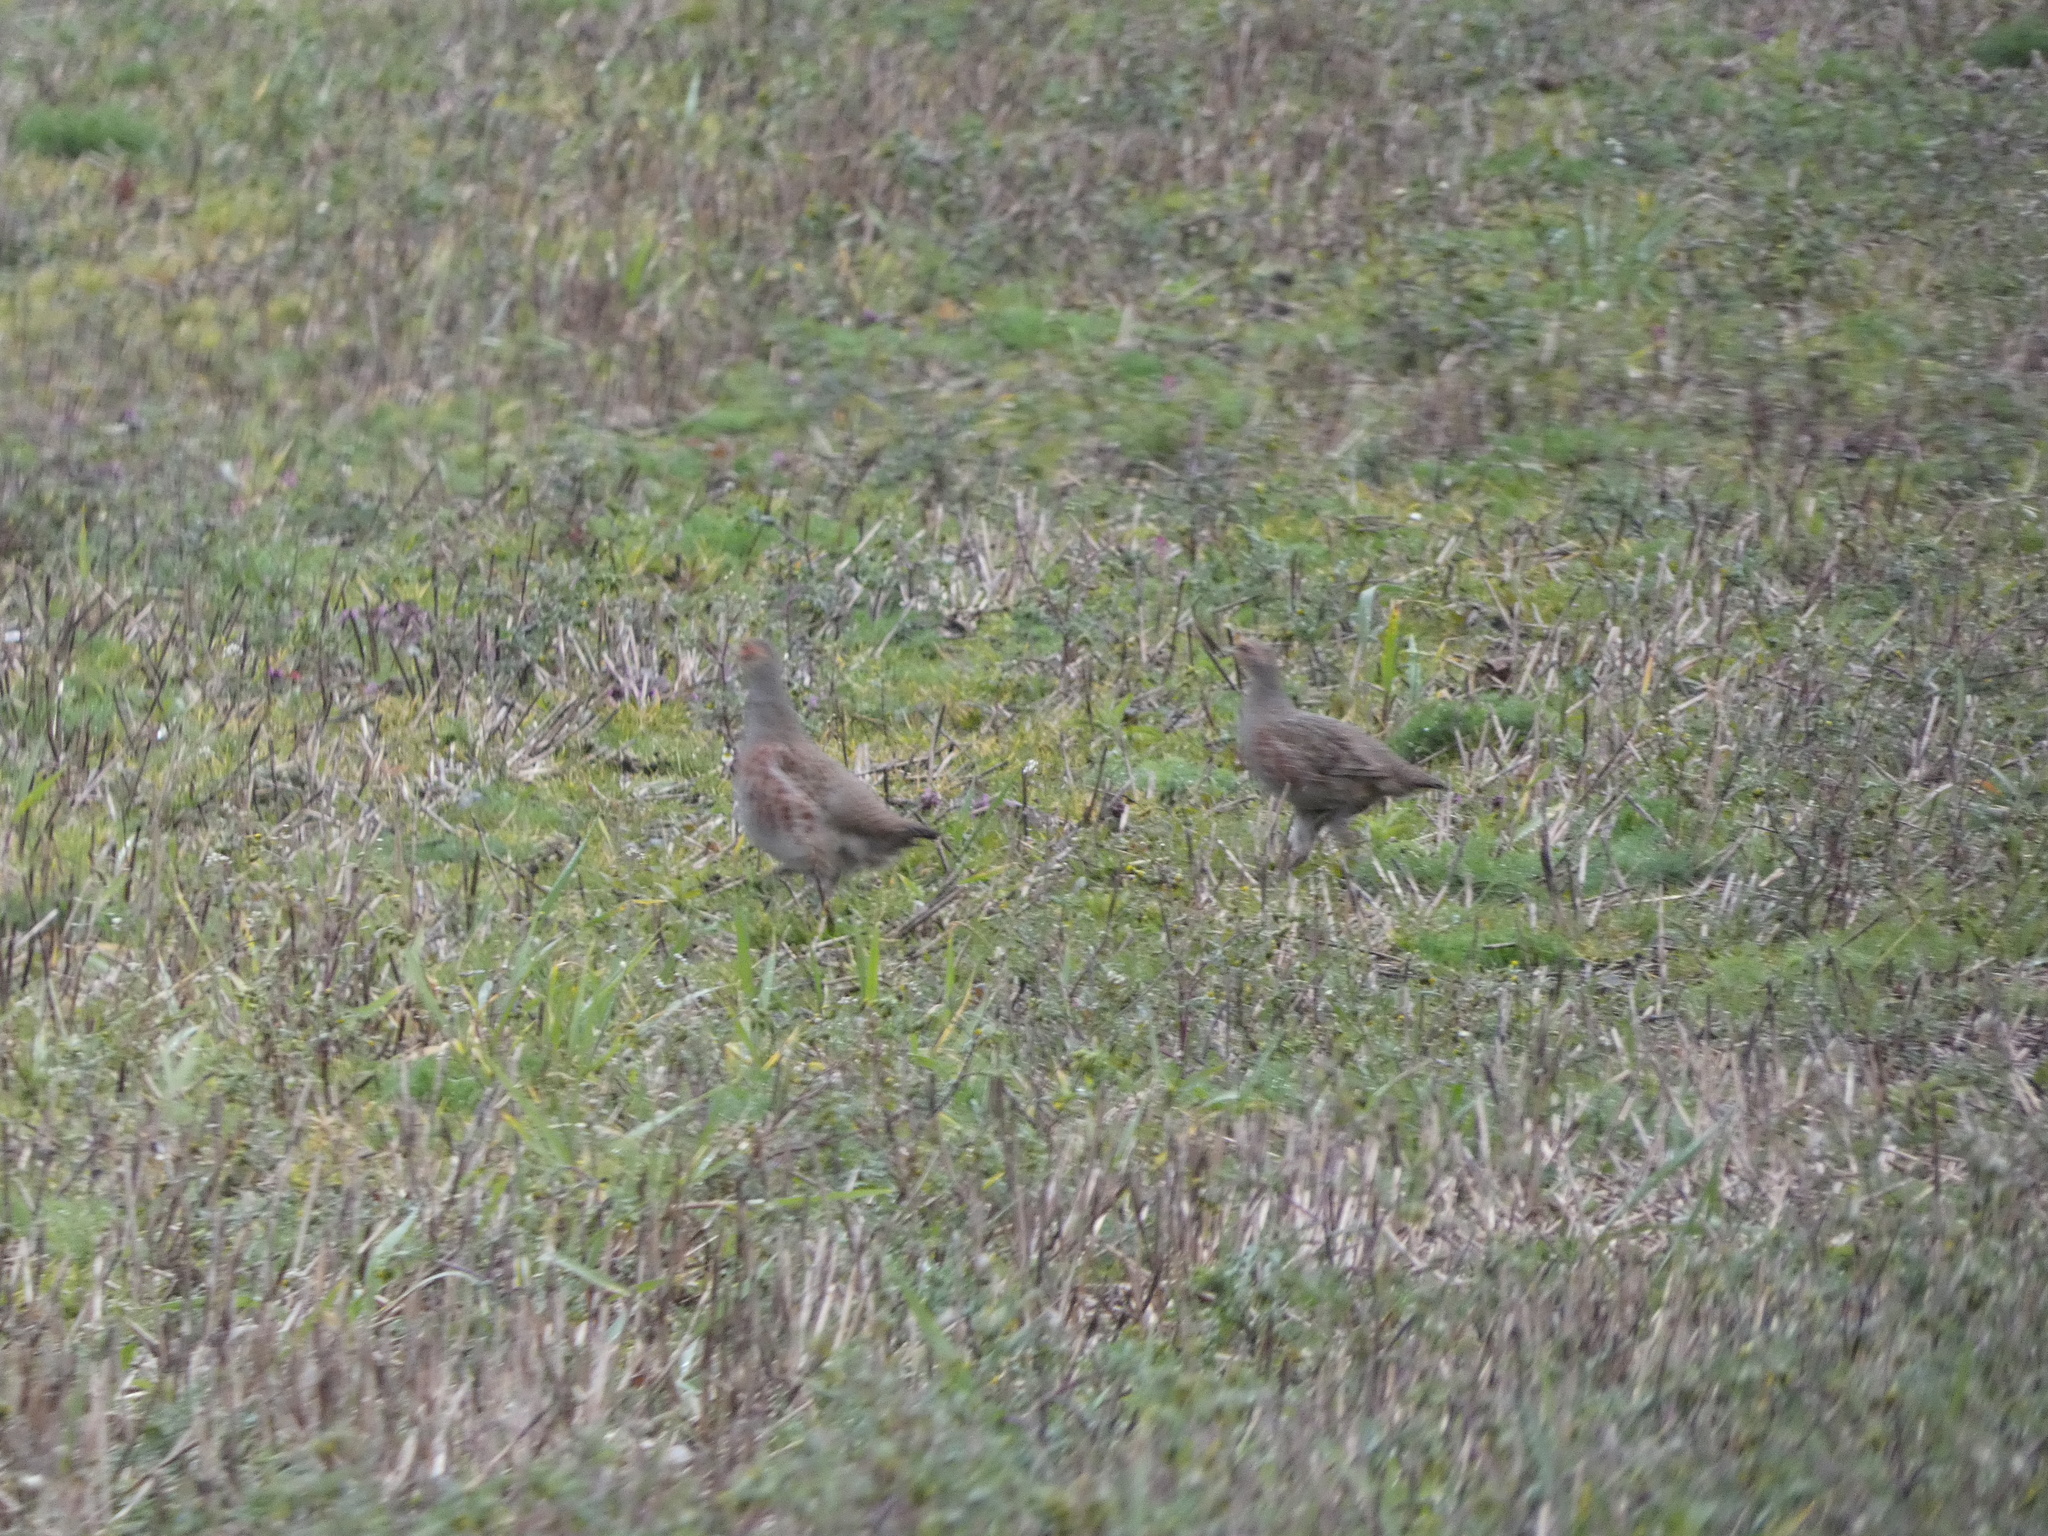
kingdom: Animalia
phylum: Chordata
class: Aves
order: Galliformes
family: Phasianidae
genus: Perdix
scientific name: Perdix perdix
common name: Grey partridge
